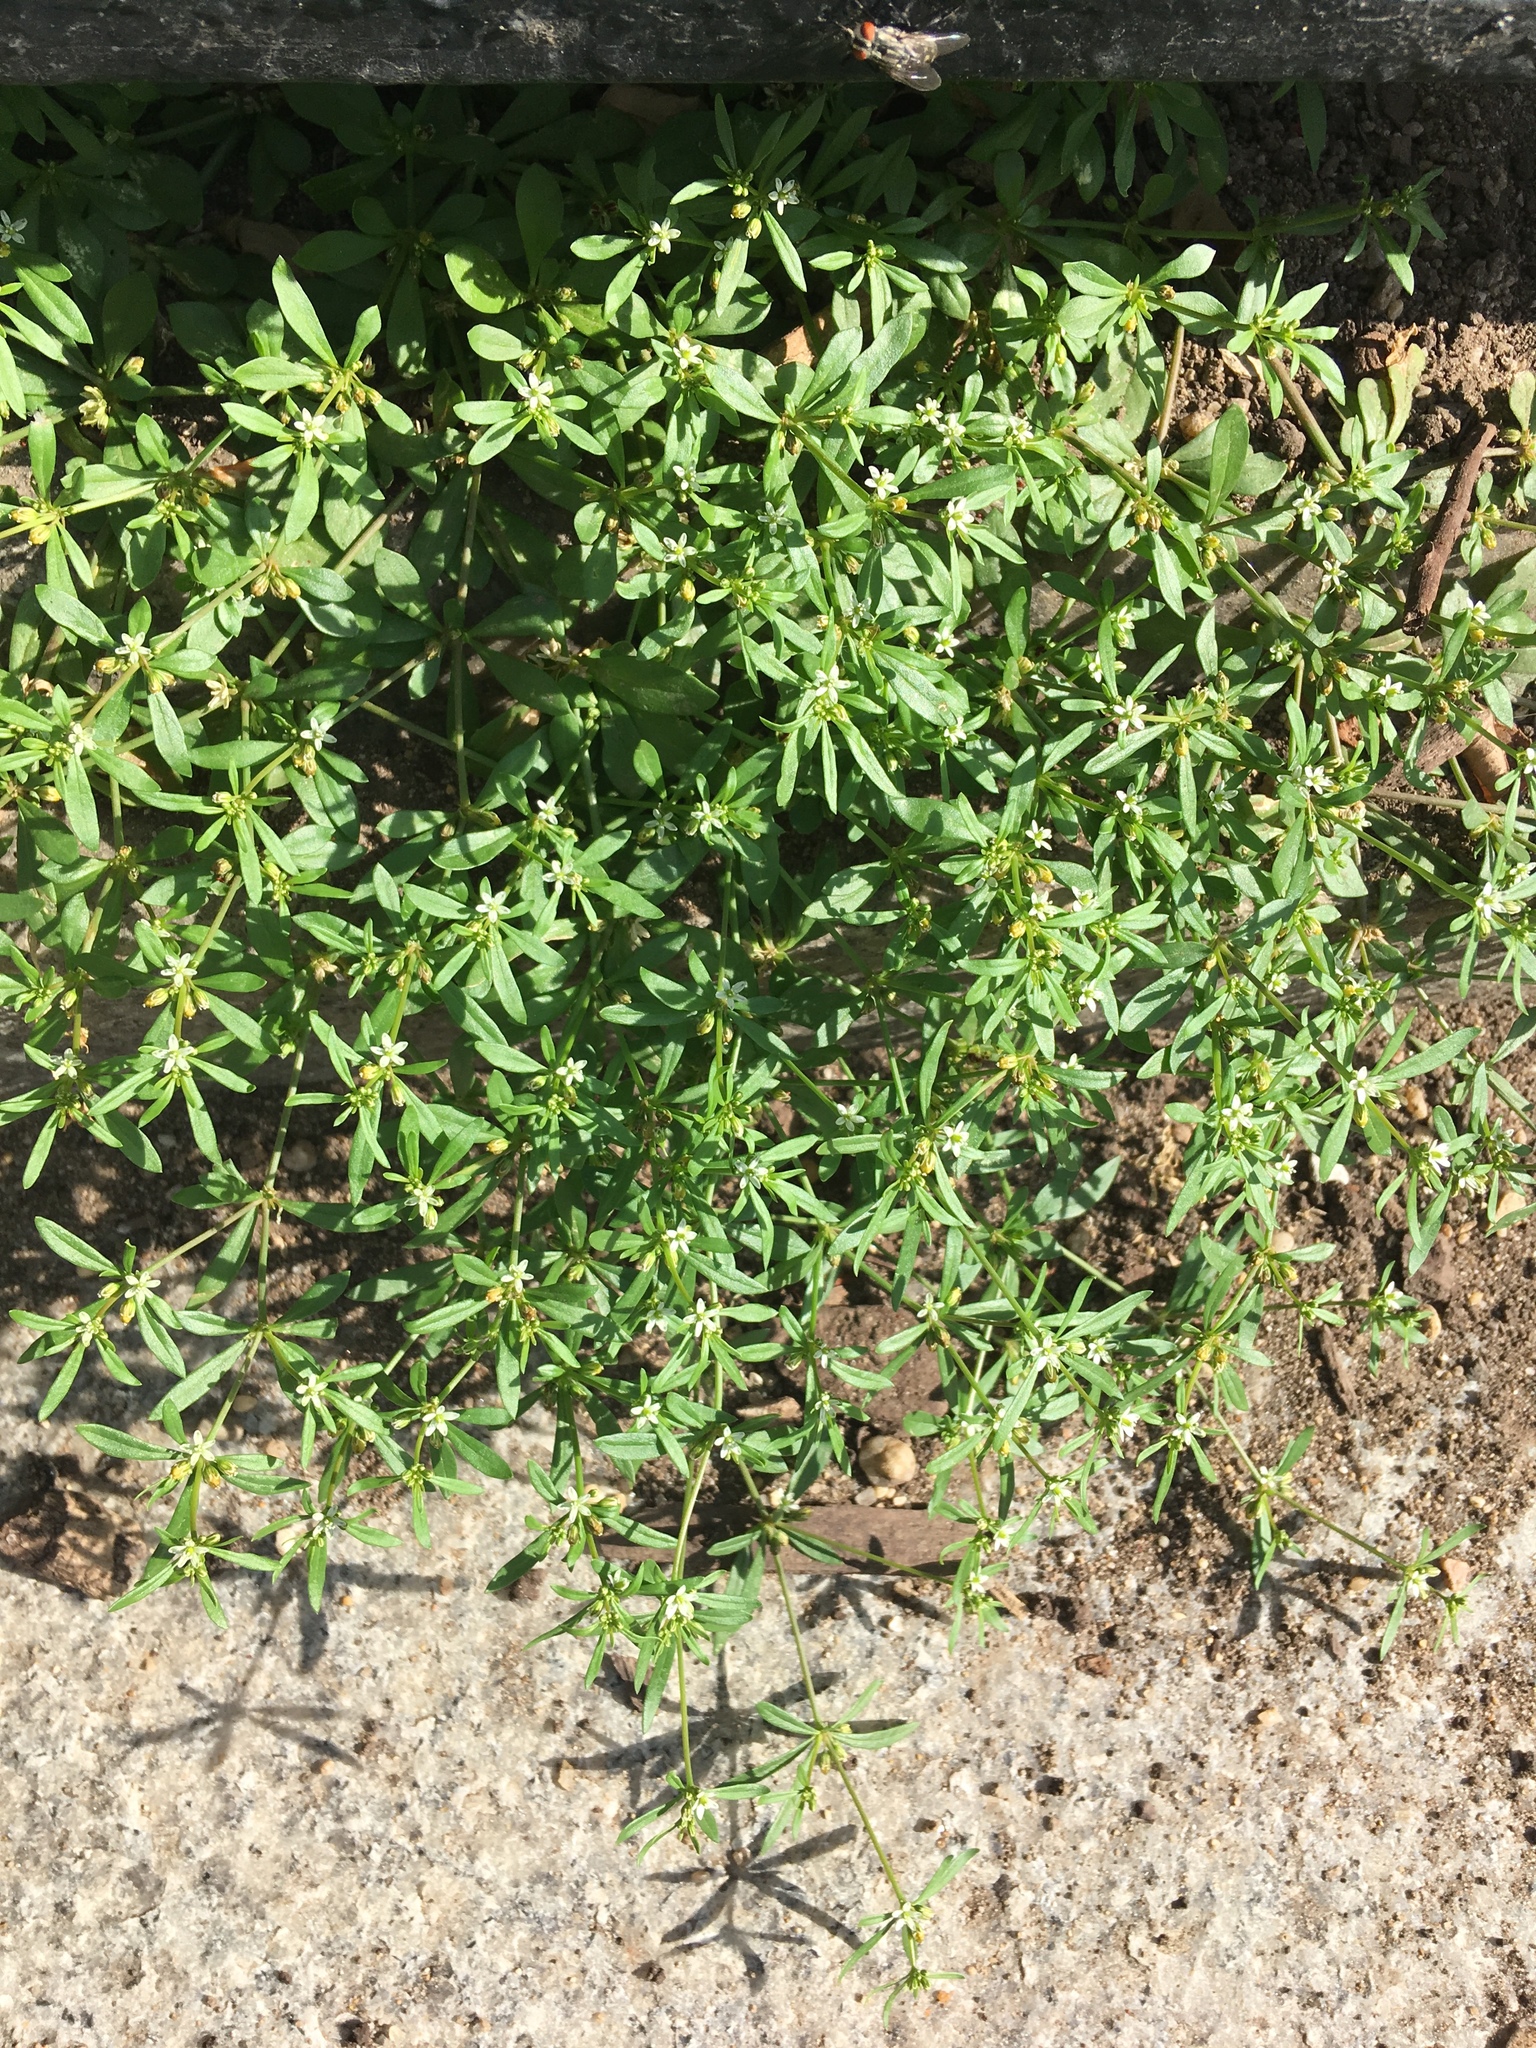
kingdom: Plantae
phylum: Tracheophyta
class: Magnoliopsida
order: Caryophyllales
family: Molluginaceae
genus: Mollugo
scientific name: Mollugo verticillata
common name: Green carpetweed
